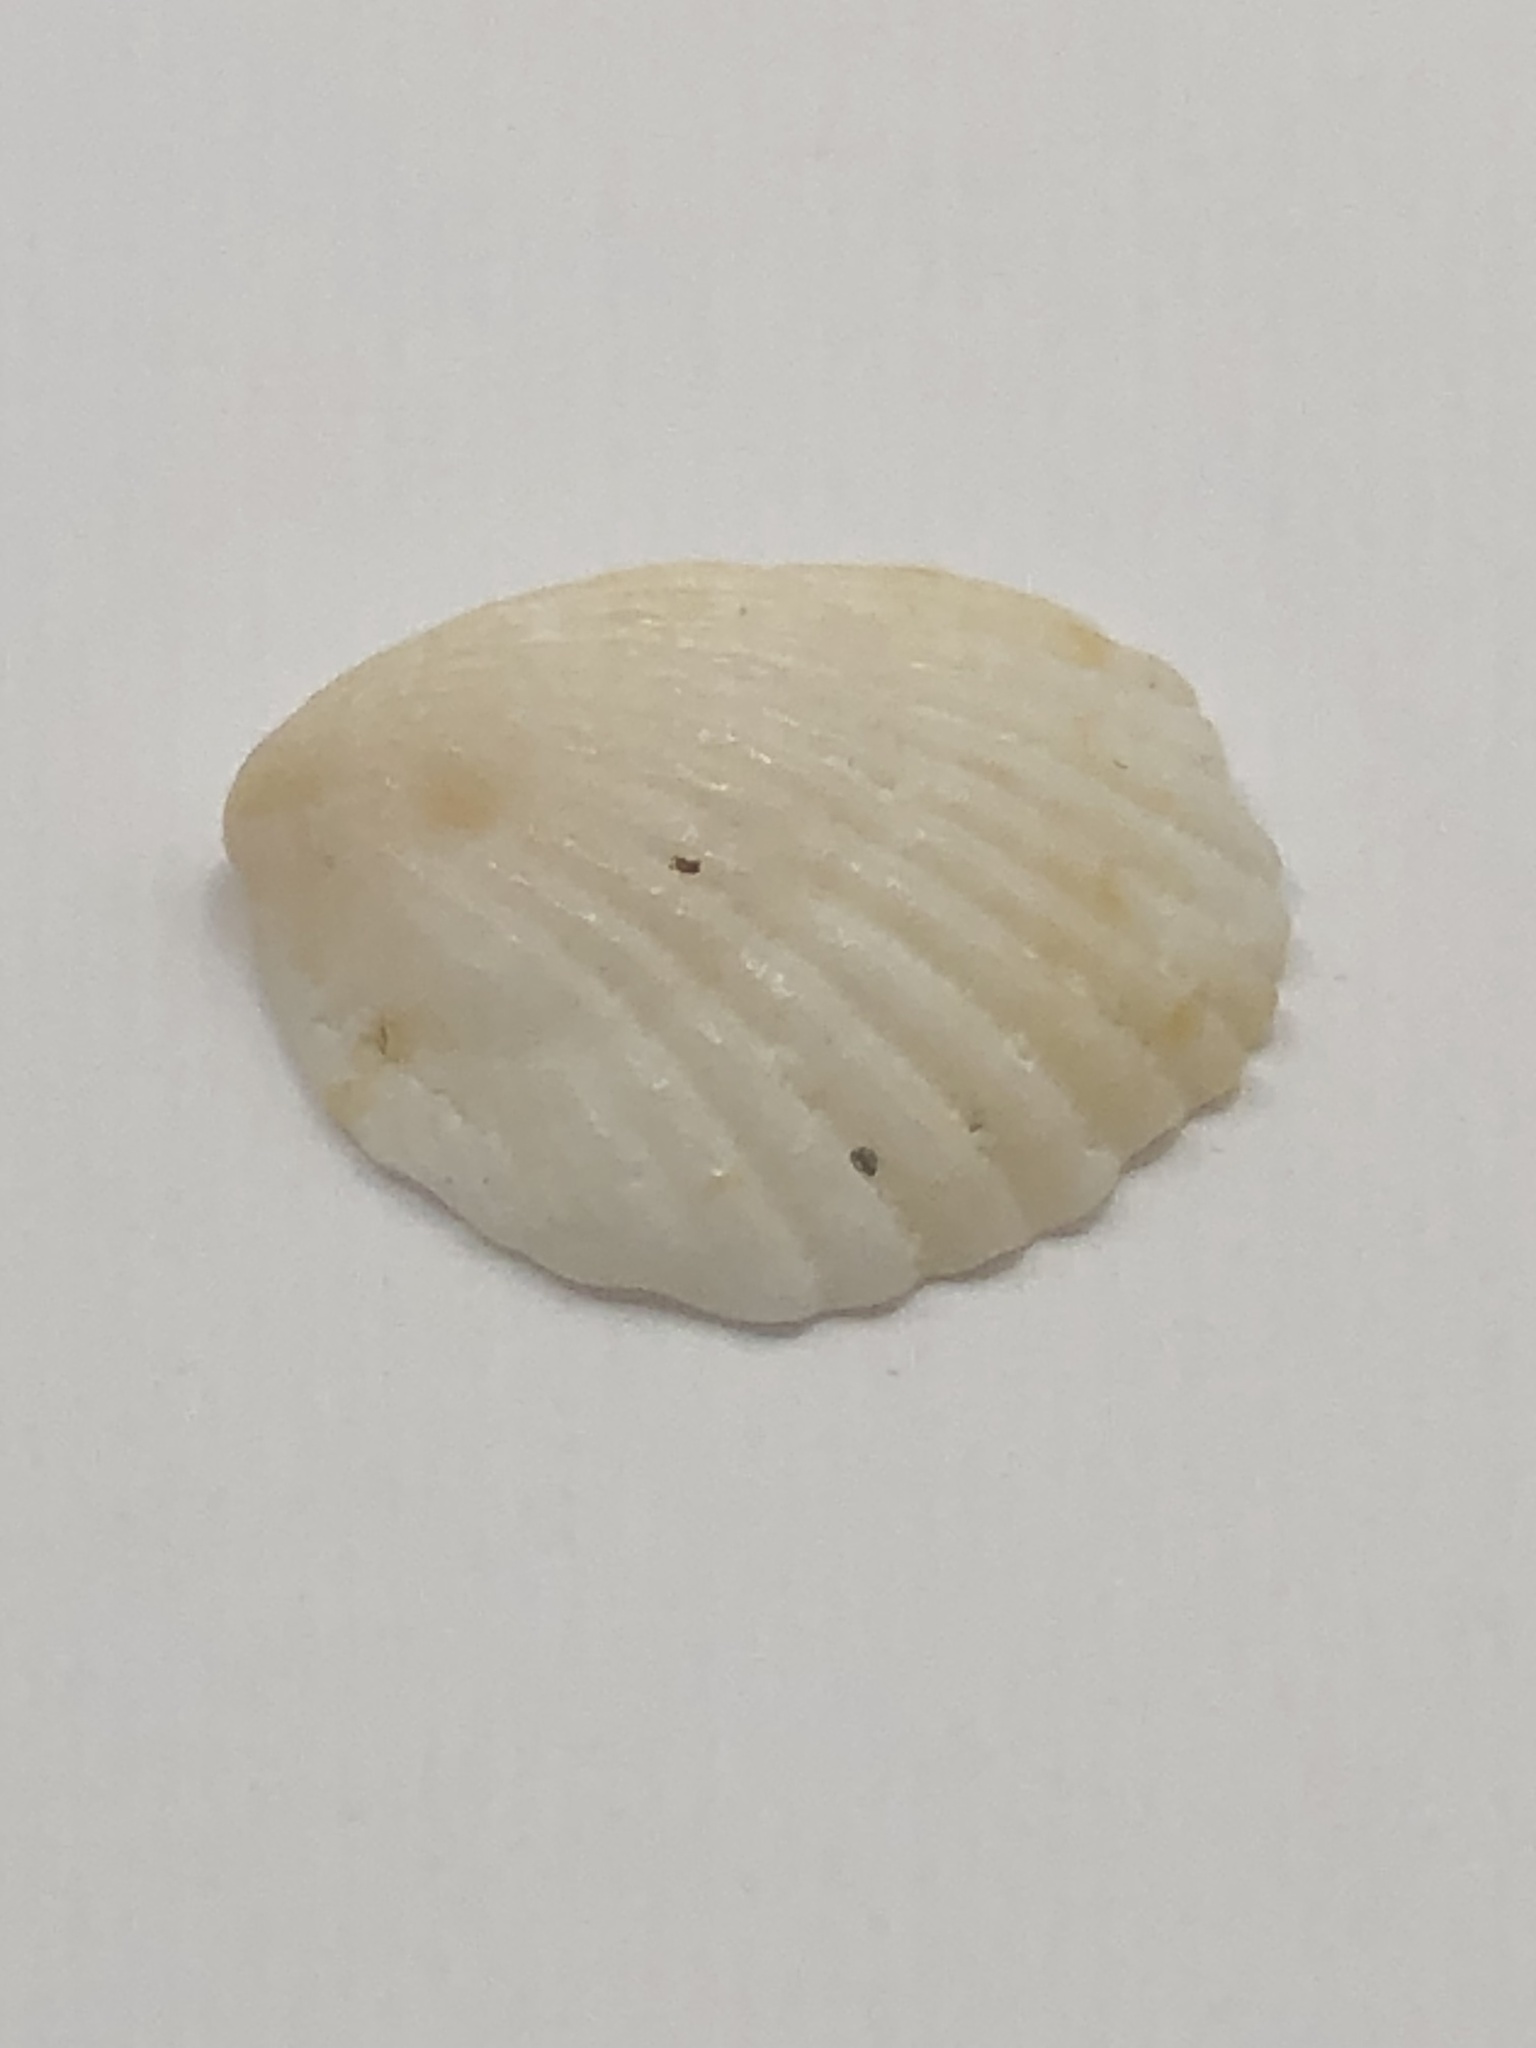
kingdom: Animalia
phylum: Mollusca
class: Bivalvia
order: Arcida
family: Glycymerididae
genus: Tucetona
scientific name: Tucetona pectinata
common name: Comb bittersweet
